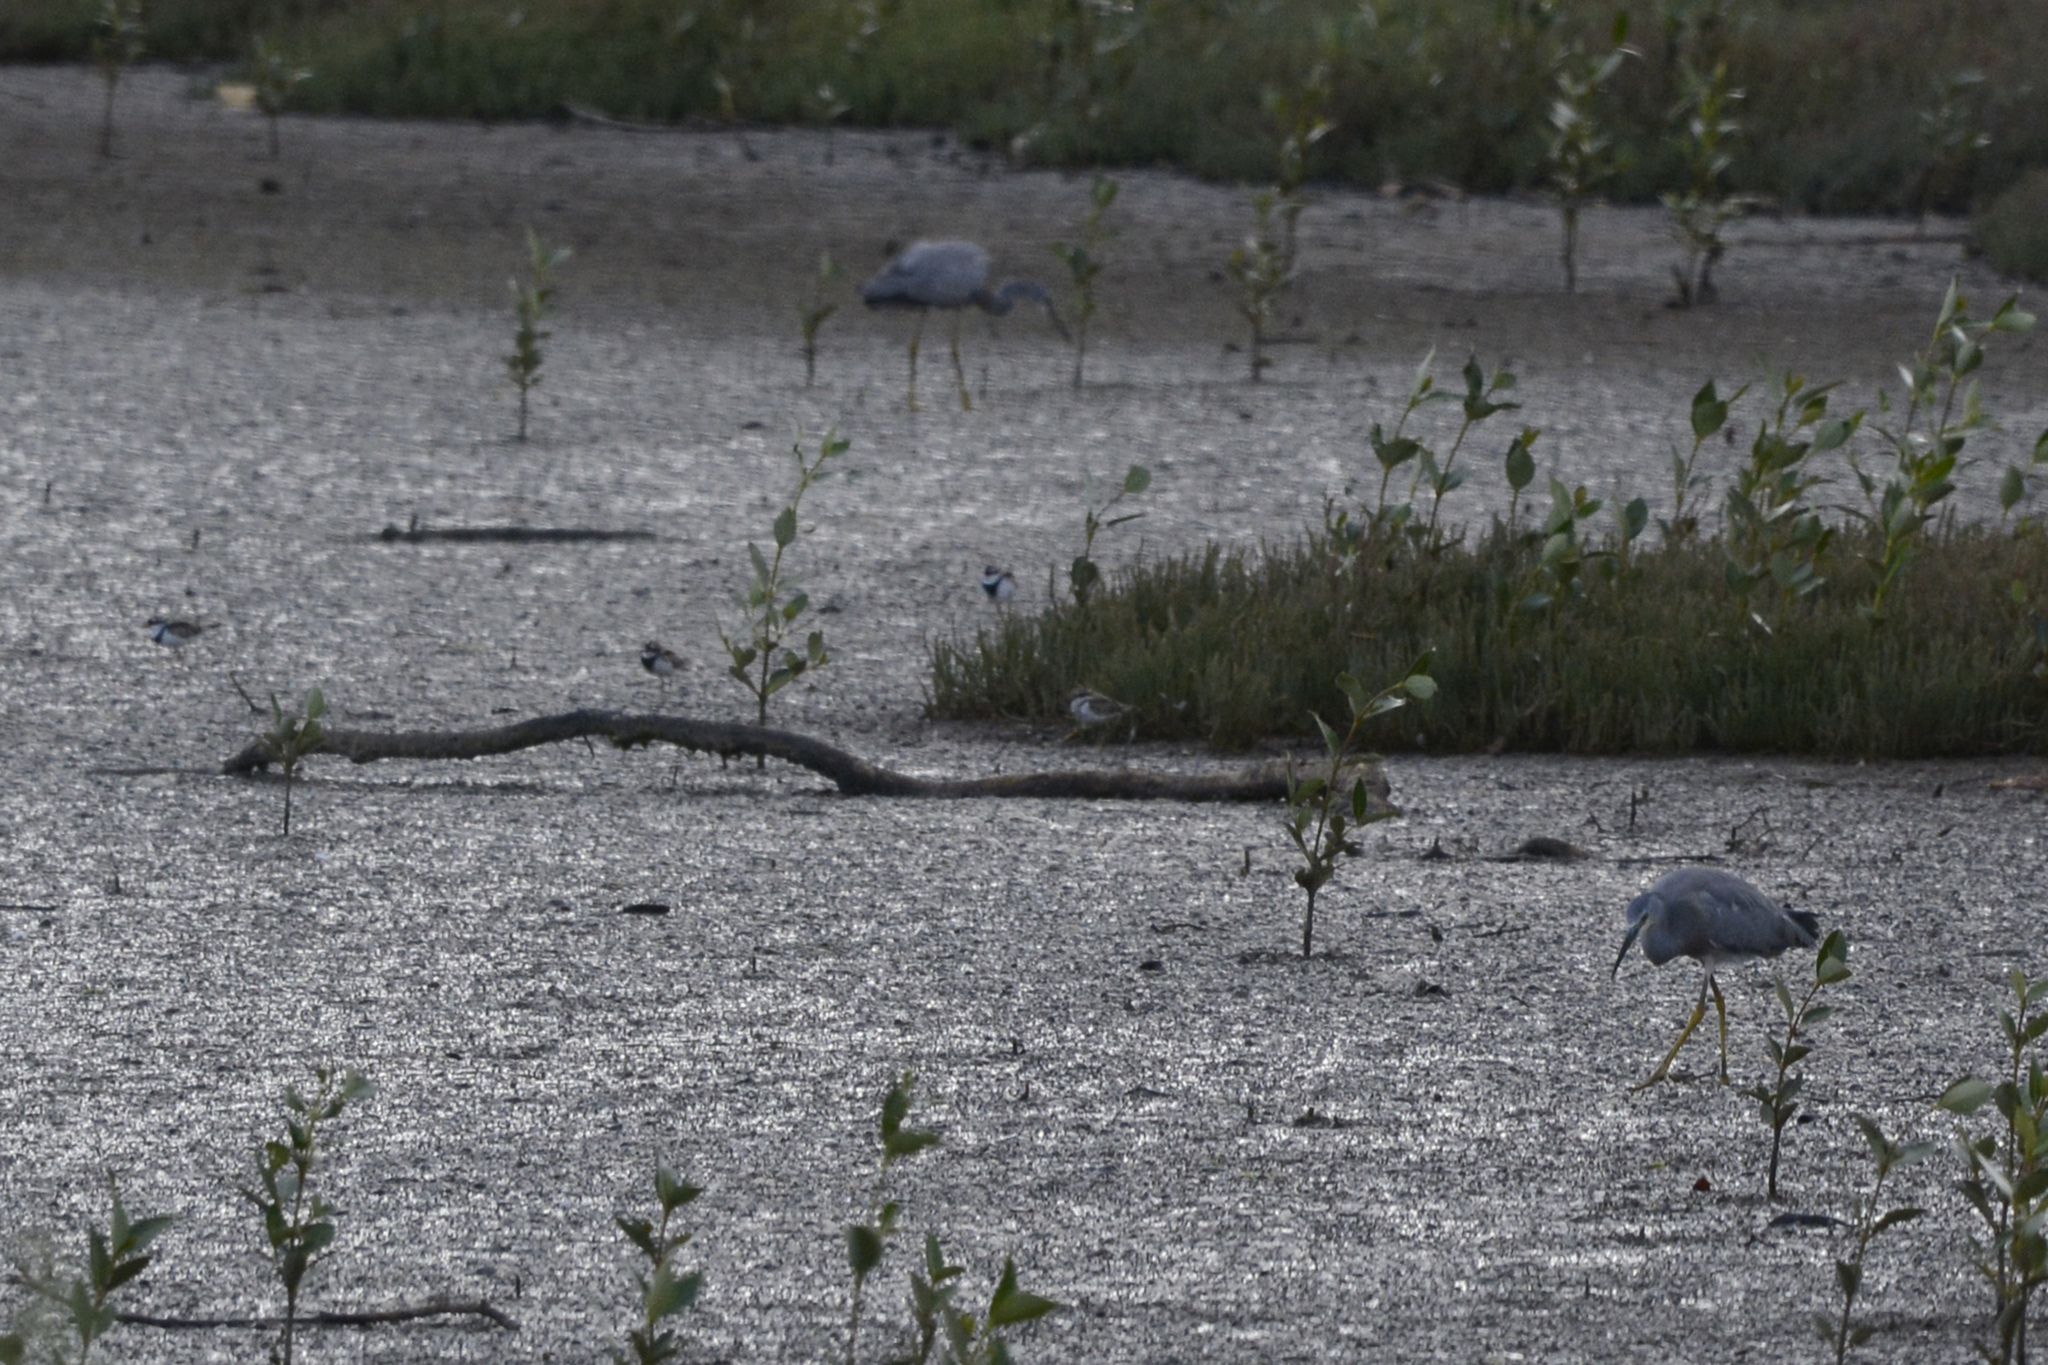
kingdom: Animalia
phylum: Chordata
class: Aves
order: Pelecaniformes
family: Ardeidae
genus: Egretta
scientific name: Egretta novaehollandiae
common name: White-faced heron
